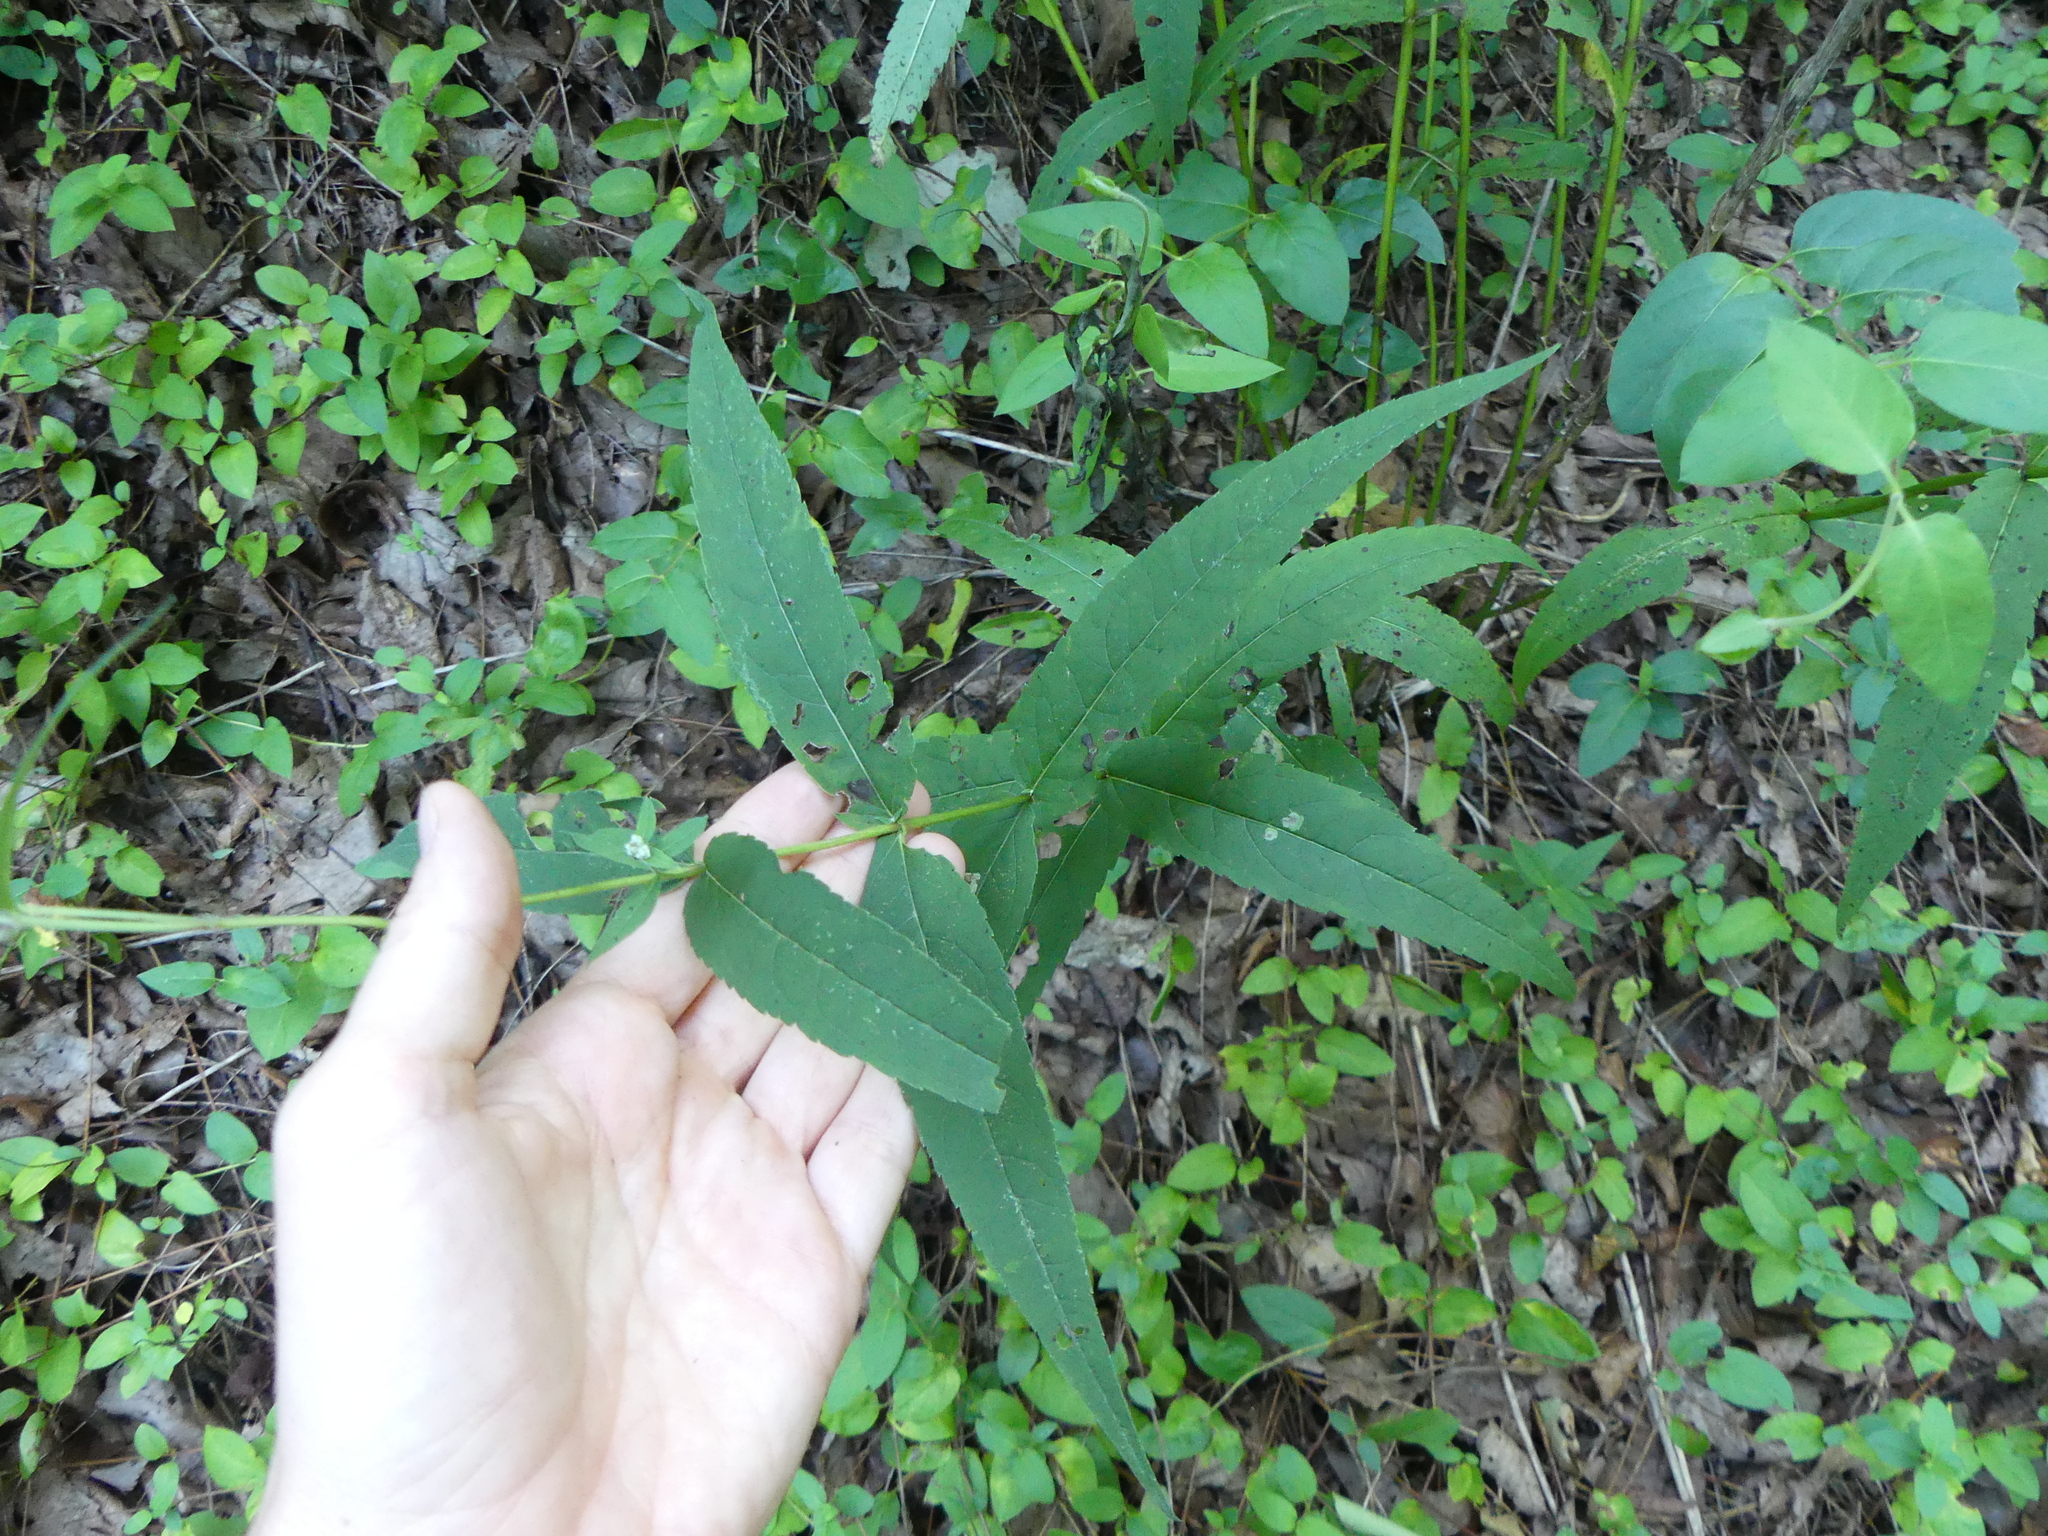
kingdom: Plantae
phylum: Tracheophyta
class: Magnoliopsida
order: Asterales
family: Asteraceae
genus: Eupatorium
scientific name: Eupatorium sessilifolium
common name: Upland boneset
